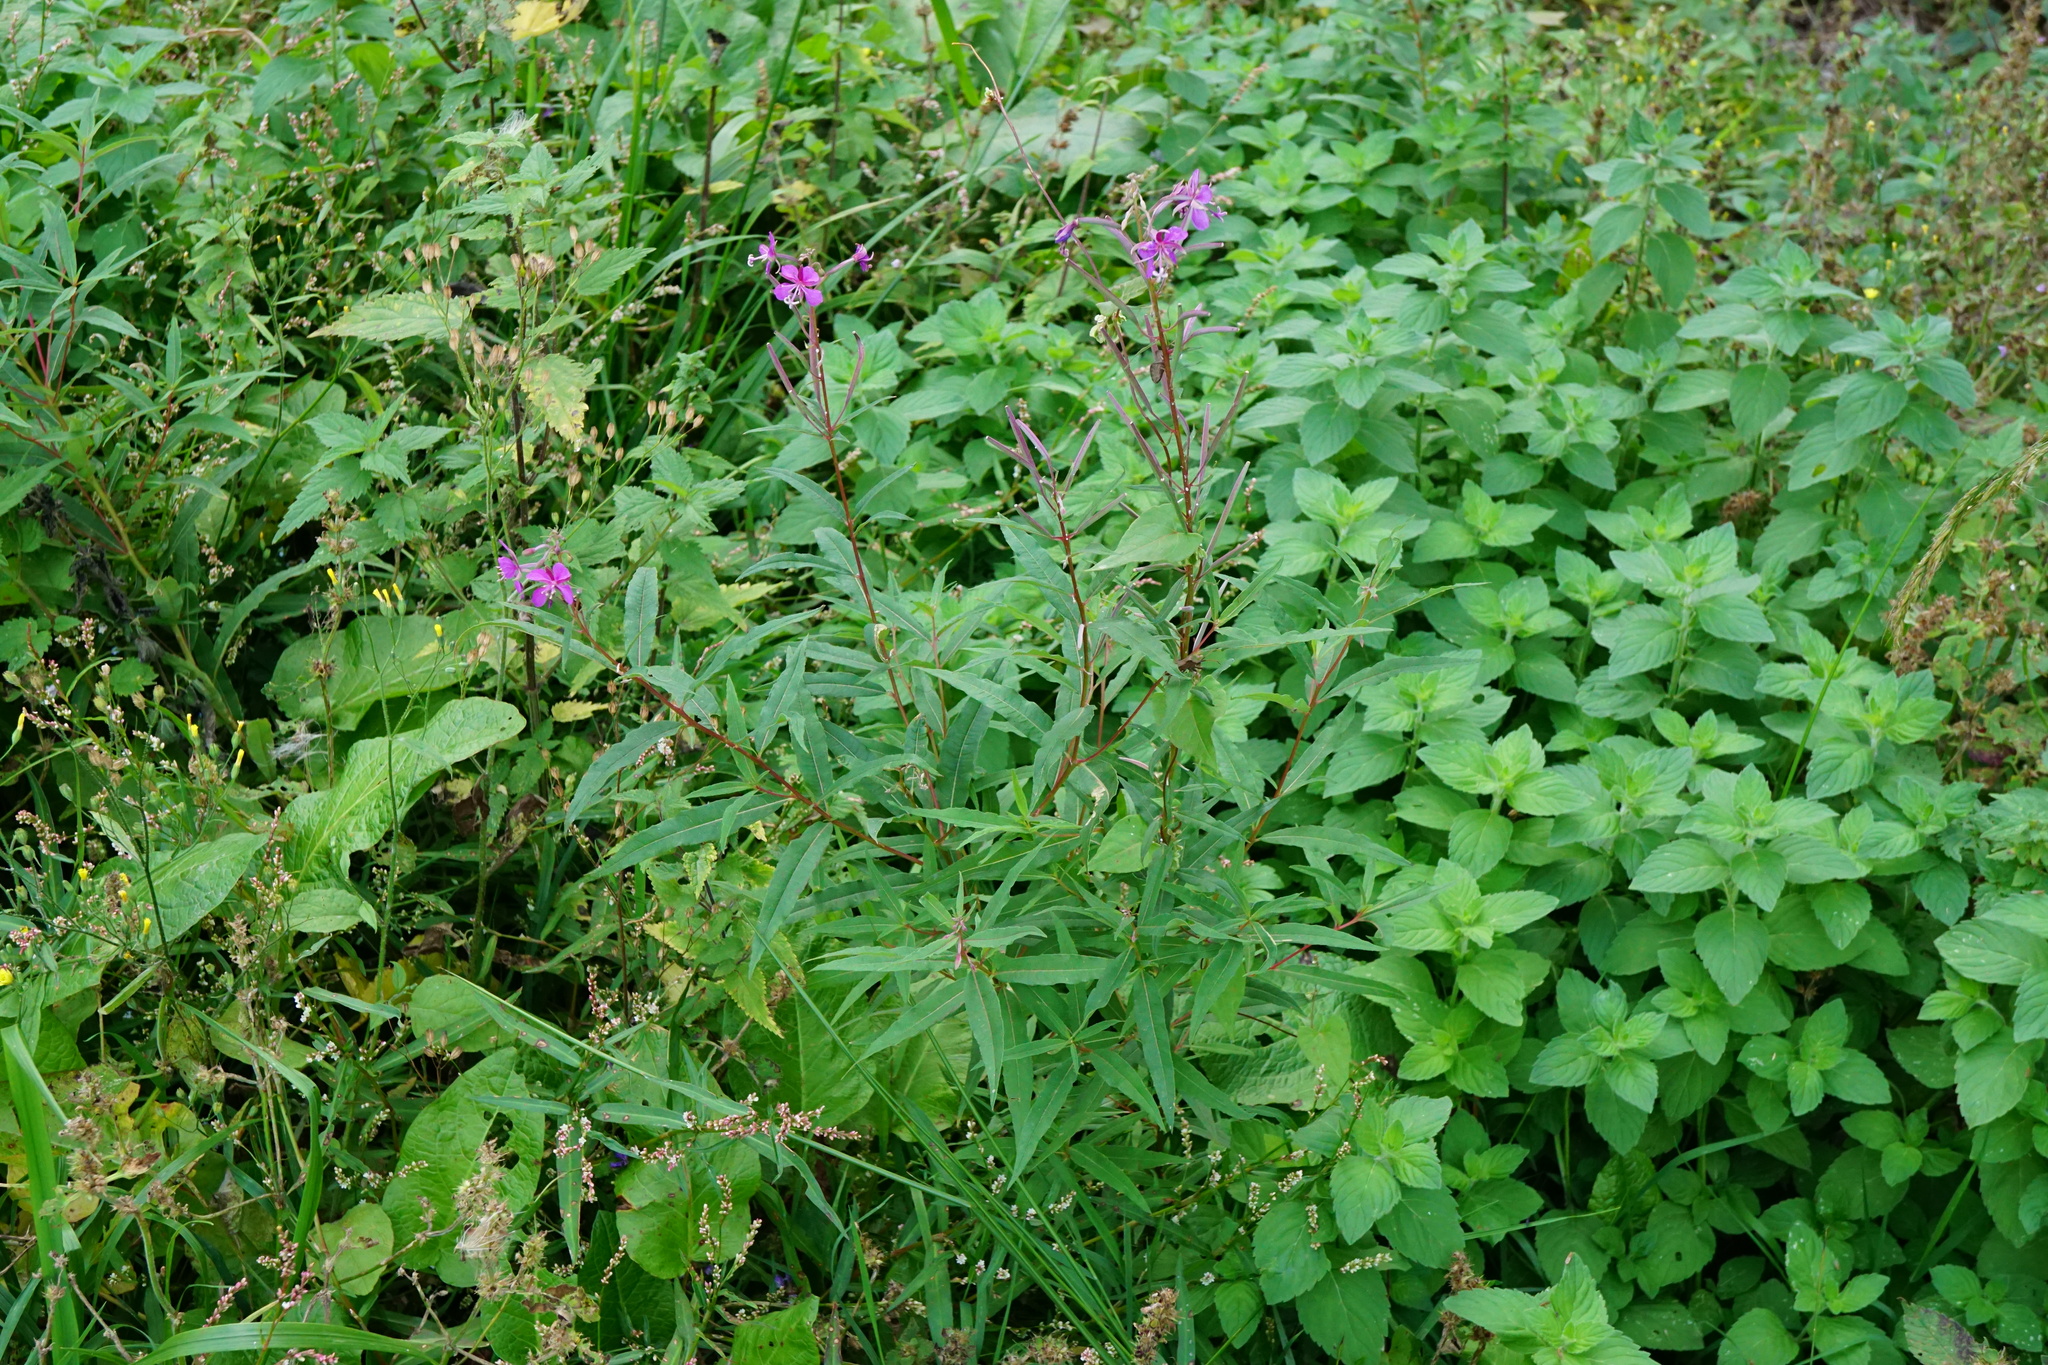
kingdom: Plantae
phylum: Tracheophyta
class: Magnoliopsida
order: Myrtales
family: Onagraceae
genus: Chamaenerion
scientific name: Chamaenerion angustifolium
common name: Fireweed
